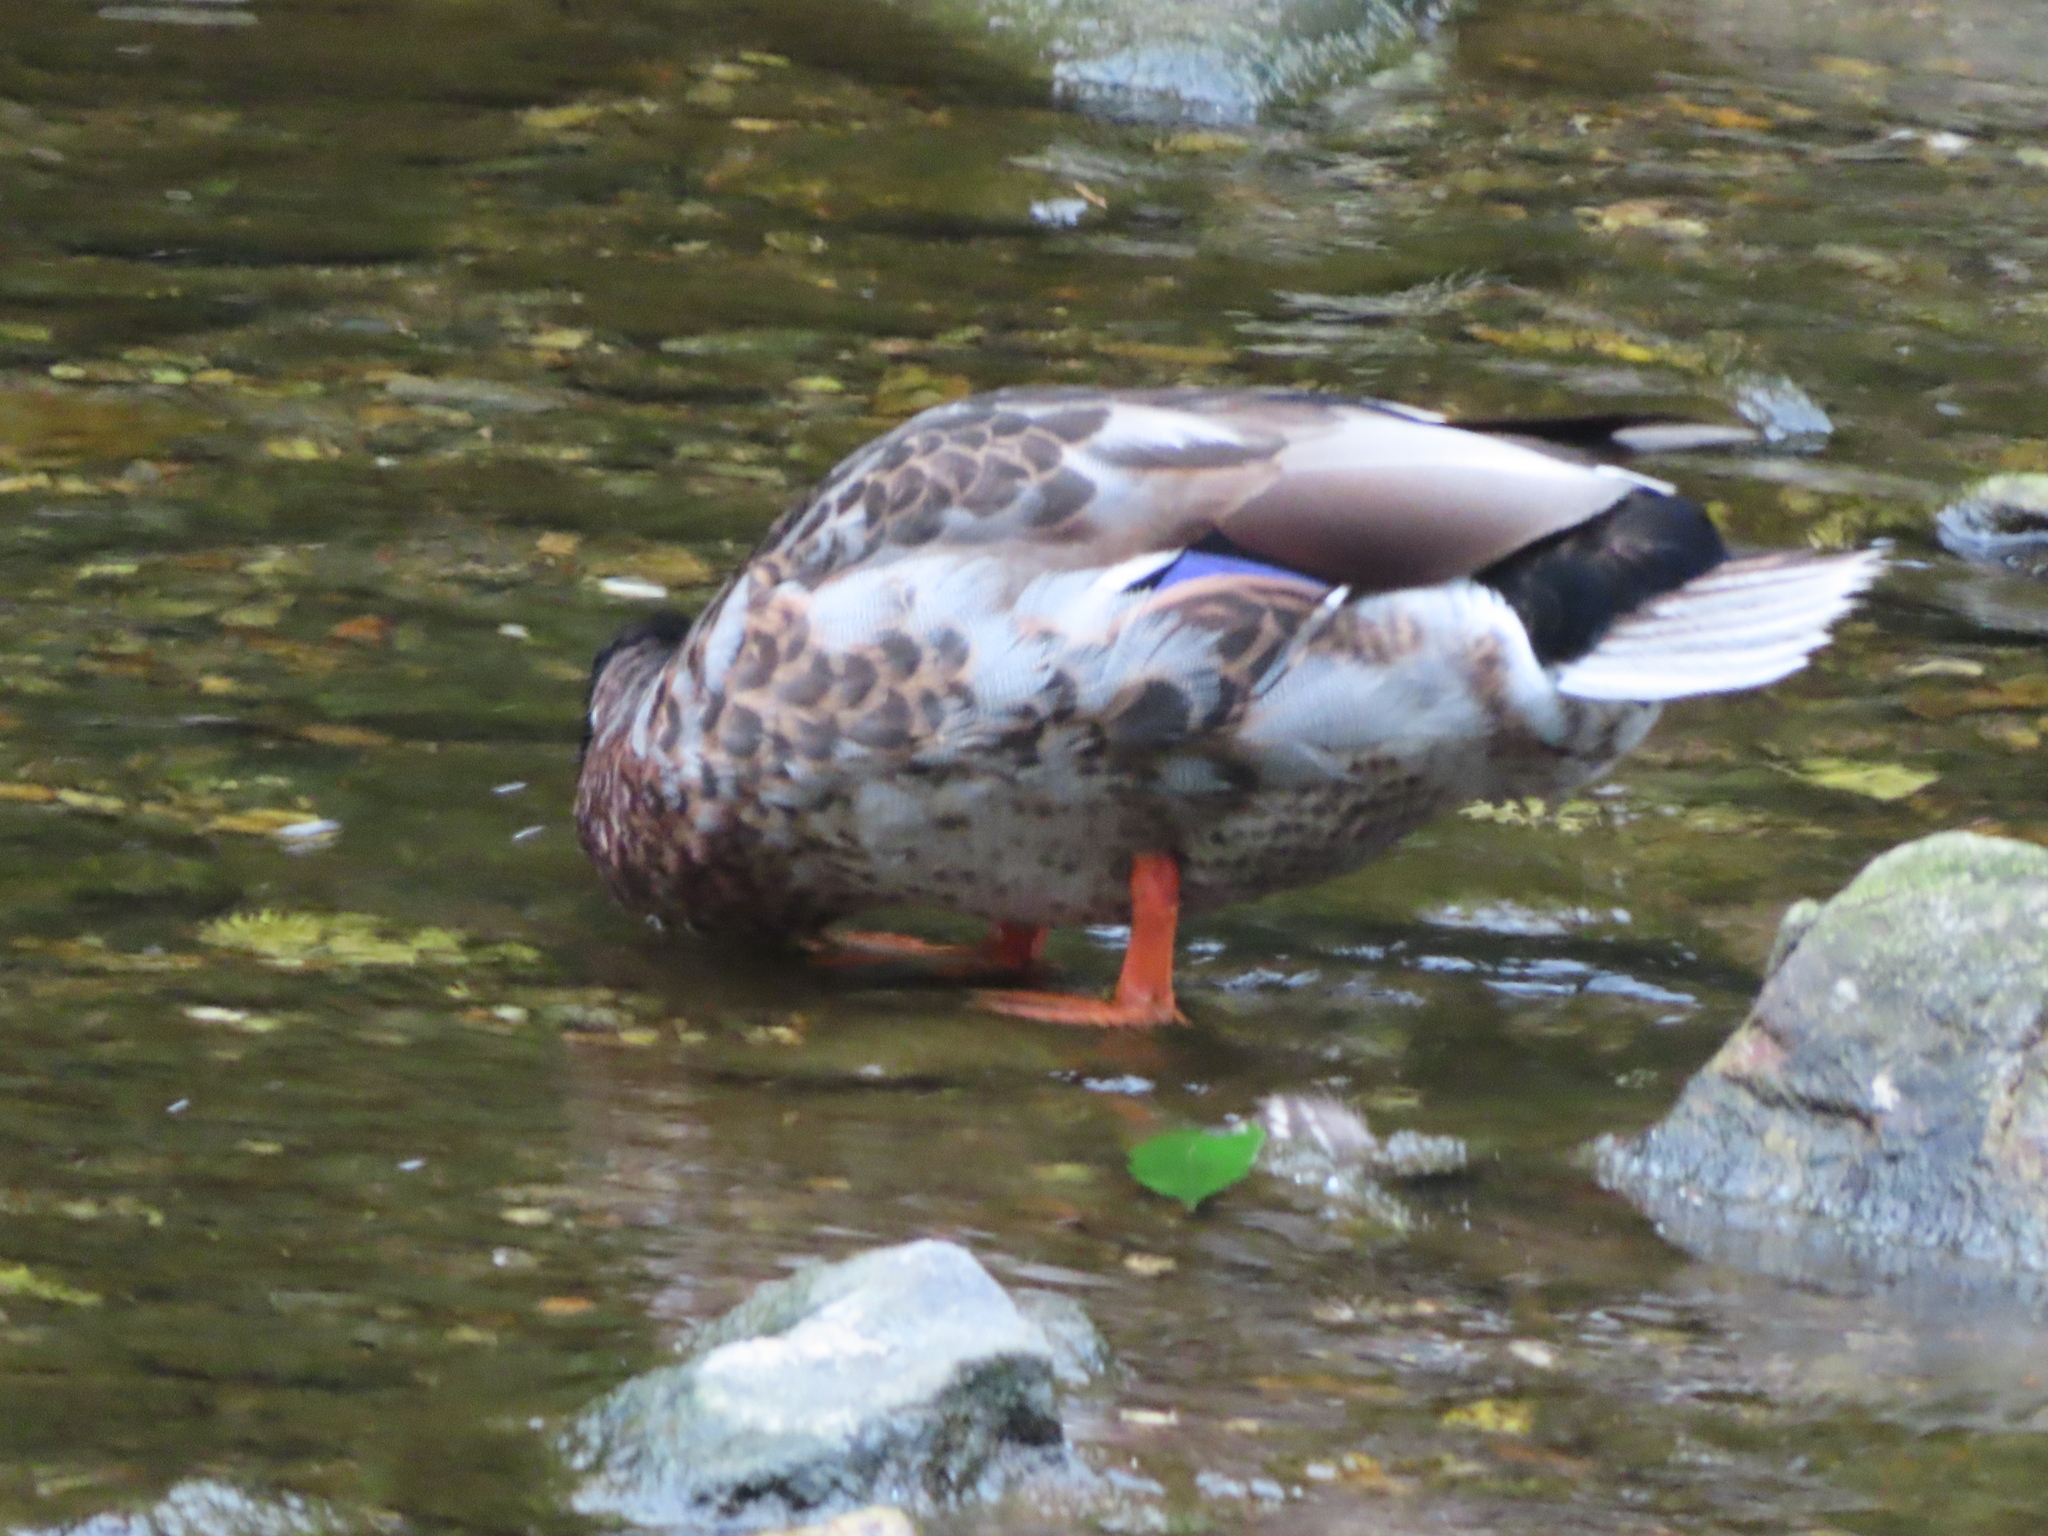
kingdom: Animalia
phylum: Chordata
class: Aves
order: Anseriformes
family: Anatidae
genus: Anas
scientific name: Anas platyrhynchos
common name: Mallard
